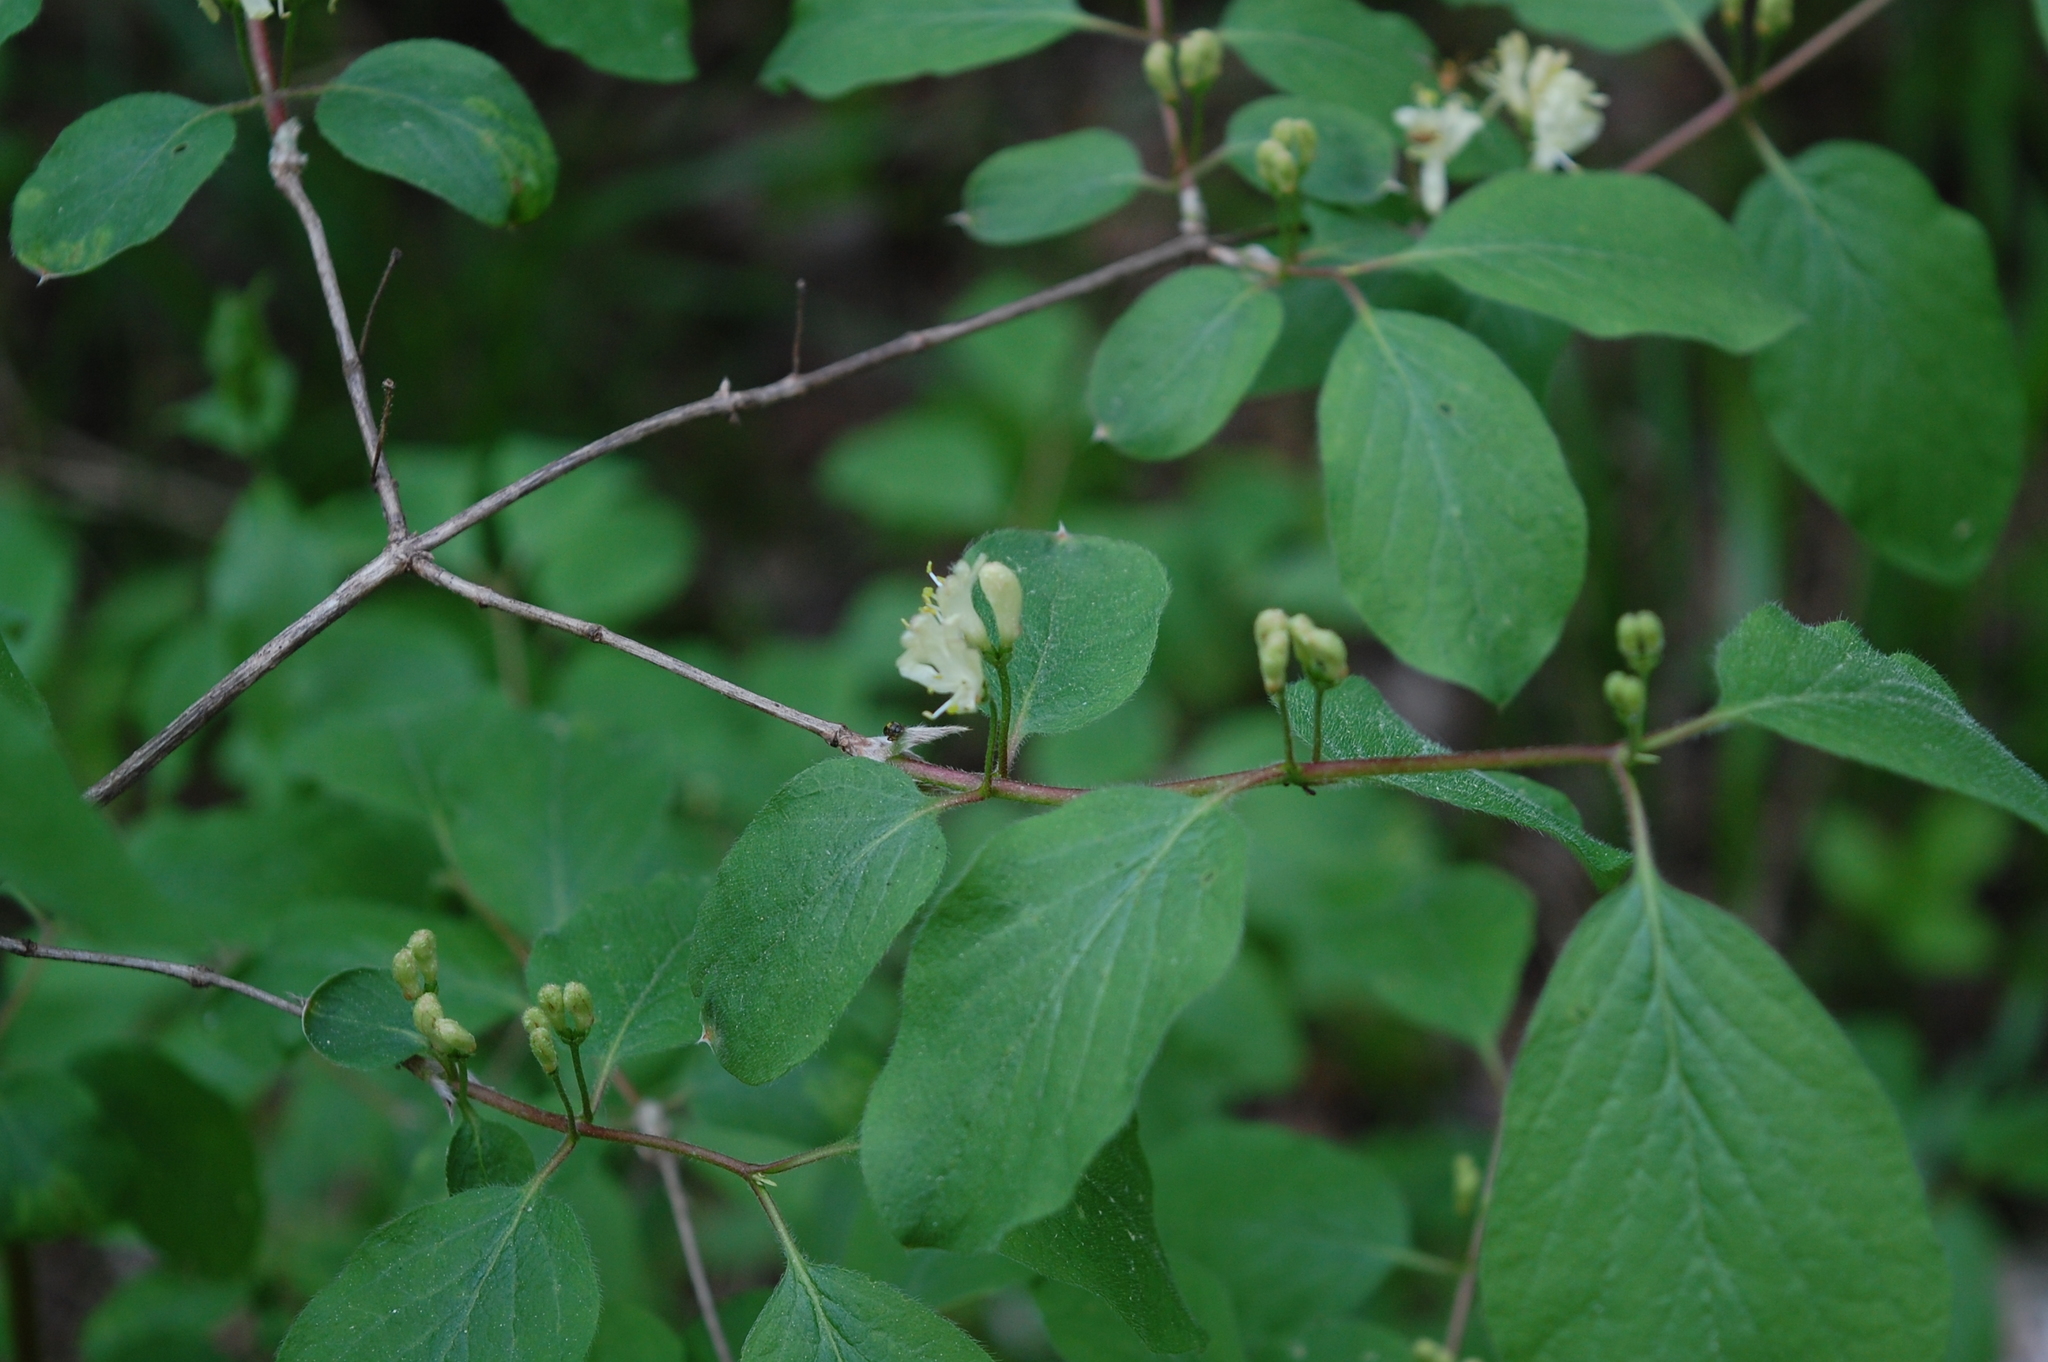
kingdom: Plantae
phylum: Tracheophyta
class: Magnoliopsida
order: Dipsacales
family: Caprifoliaceae
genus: Lonicera
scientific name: Lonicera xylosteum
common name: Fly honeysuckle
